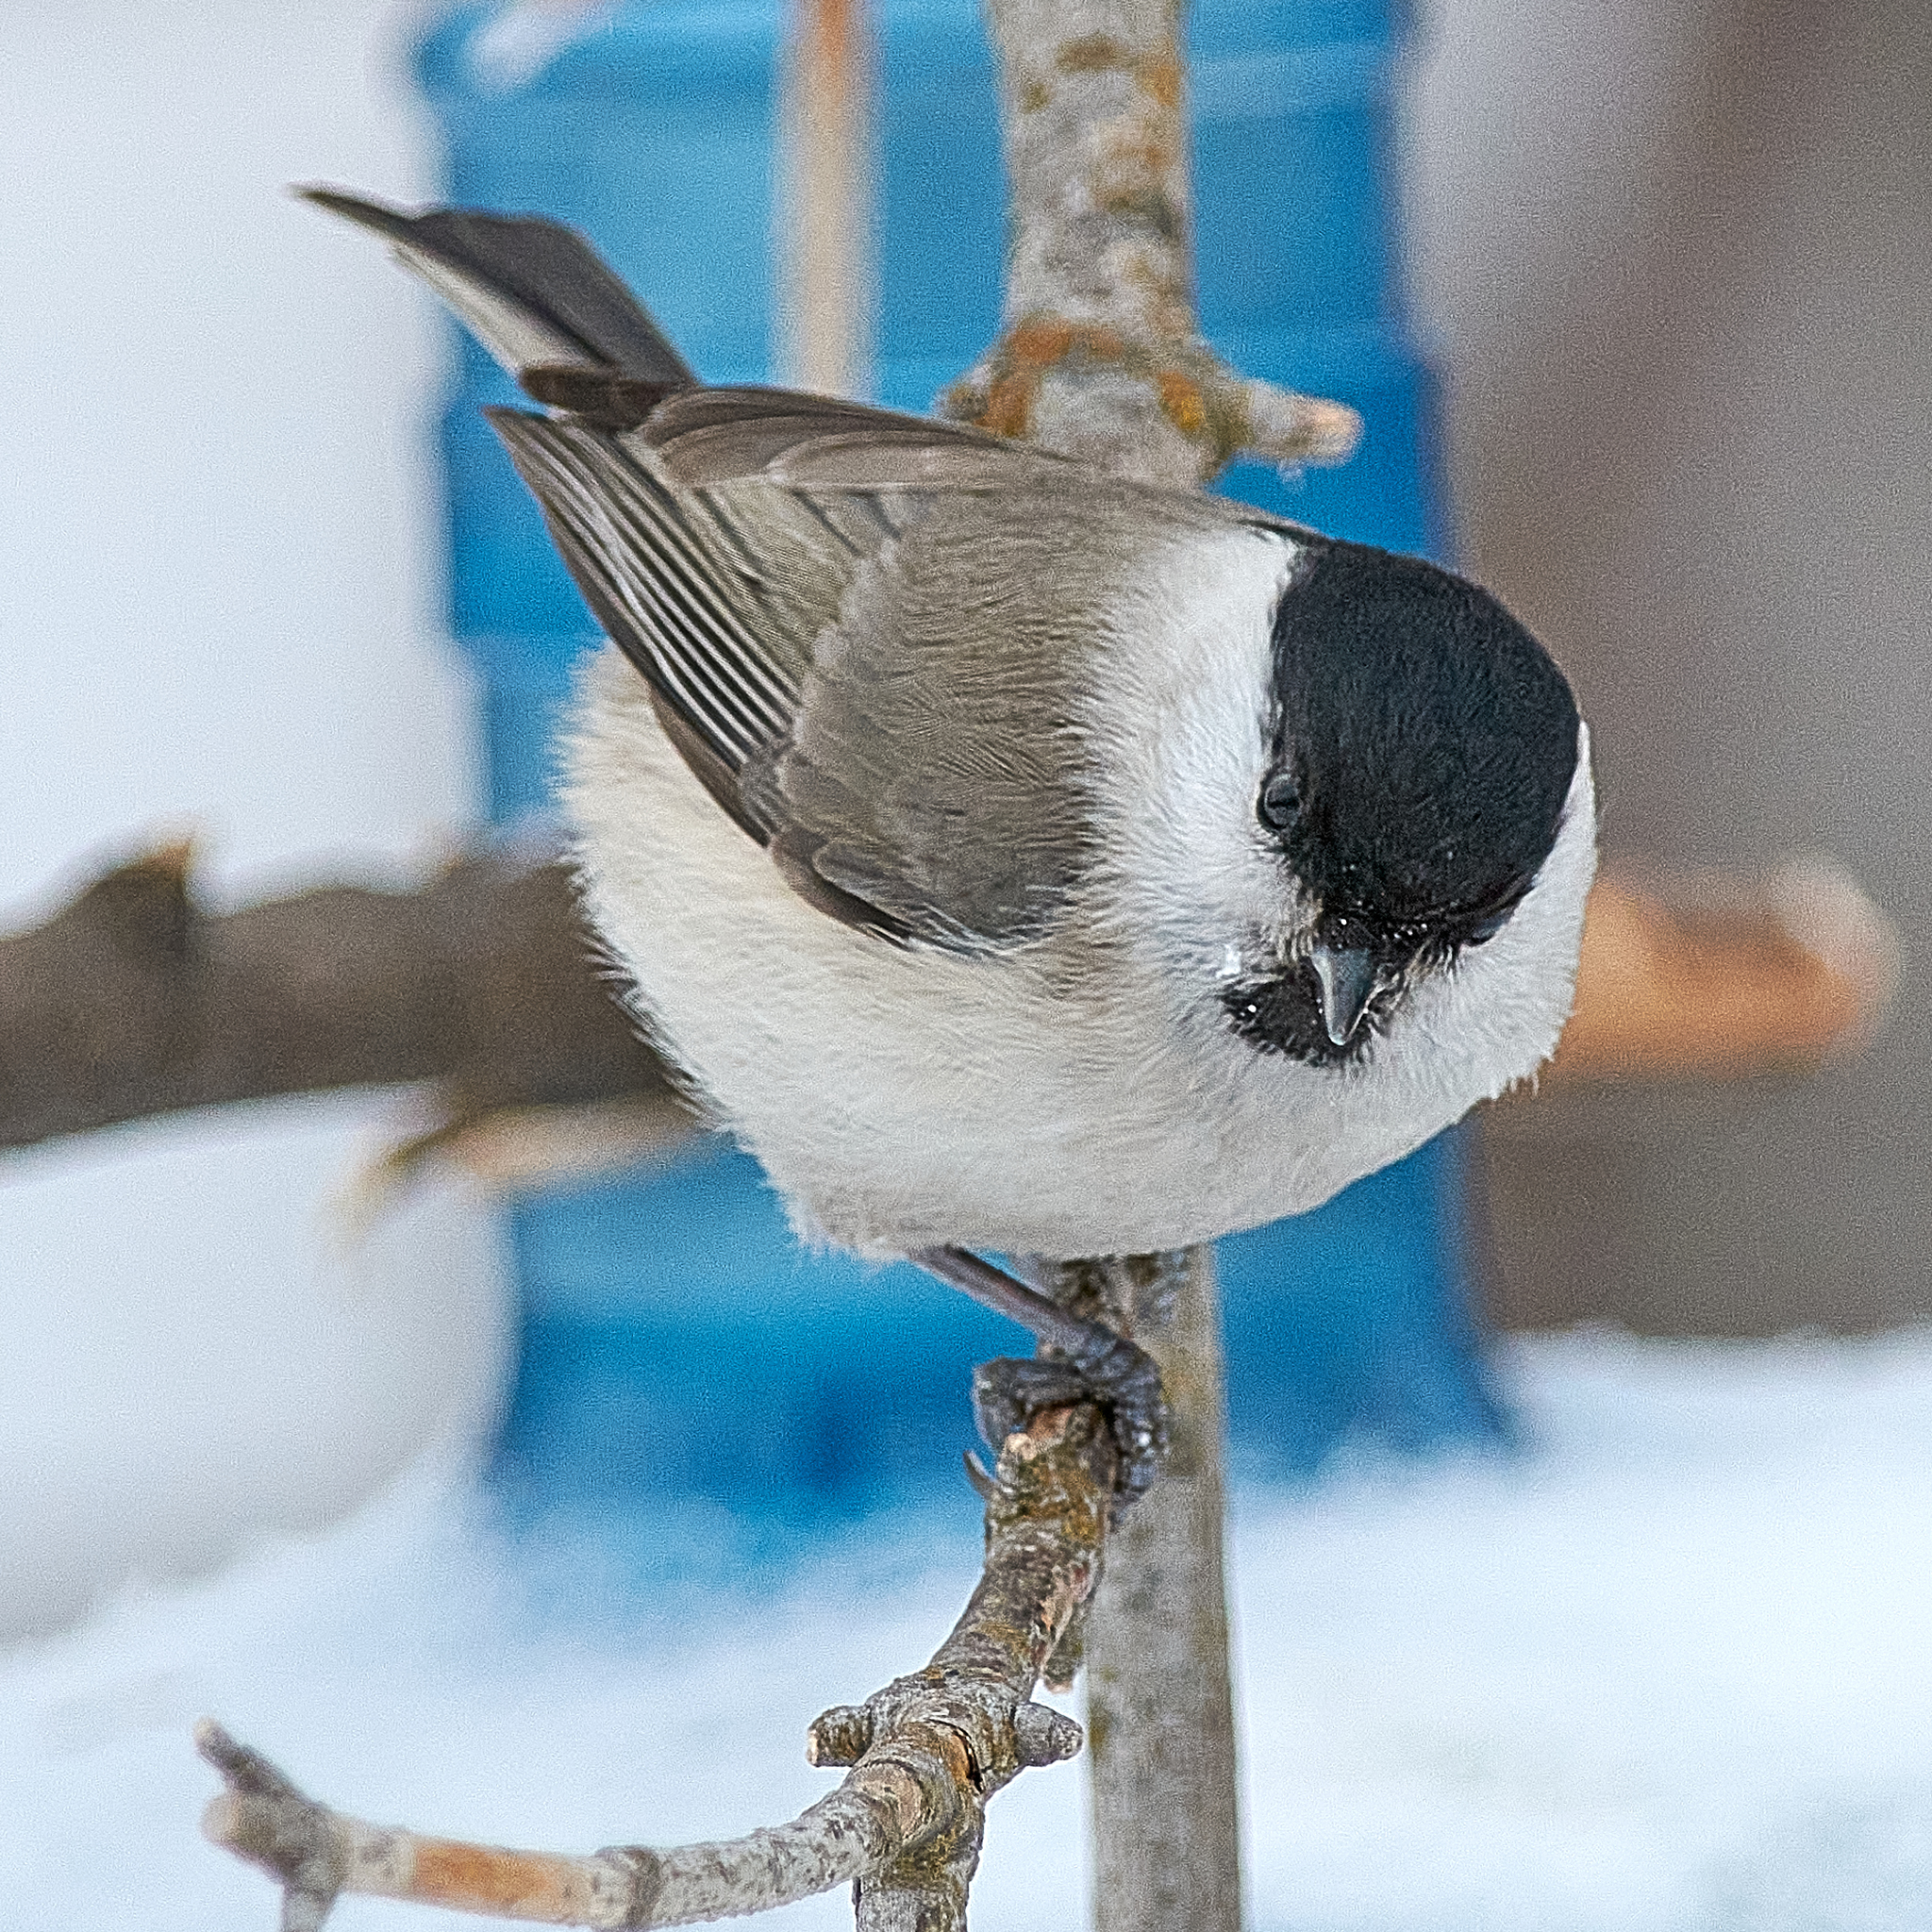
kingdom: Animalia
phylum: Chordata
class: Aves
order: Passeriformes
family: Paridae
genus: Poecile
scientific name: Poecile palustris
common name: Marsh tit
